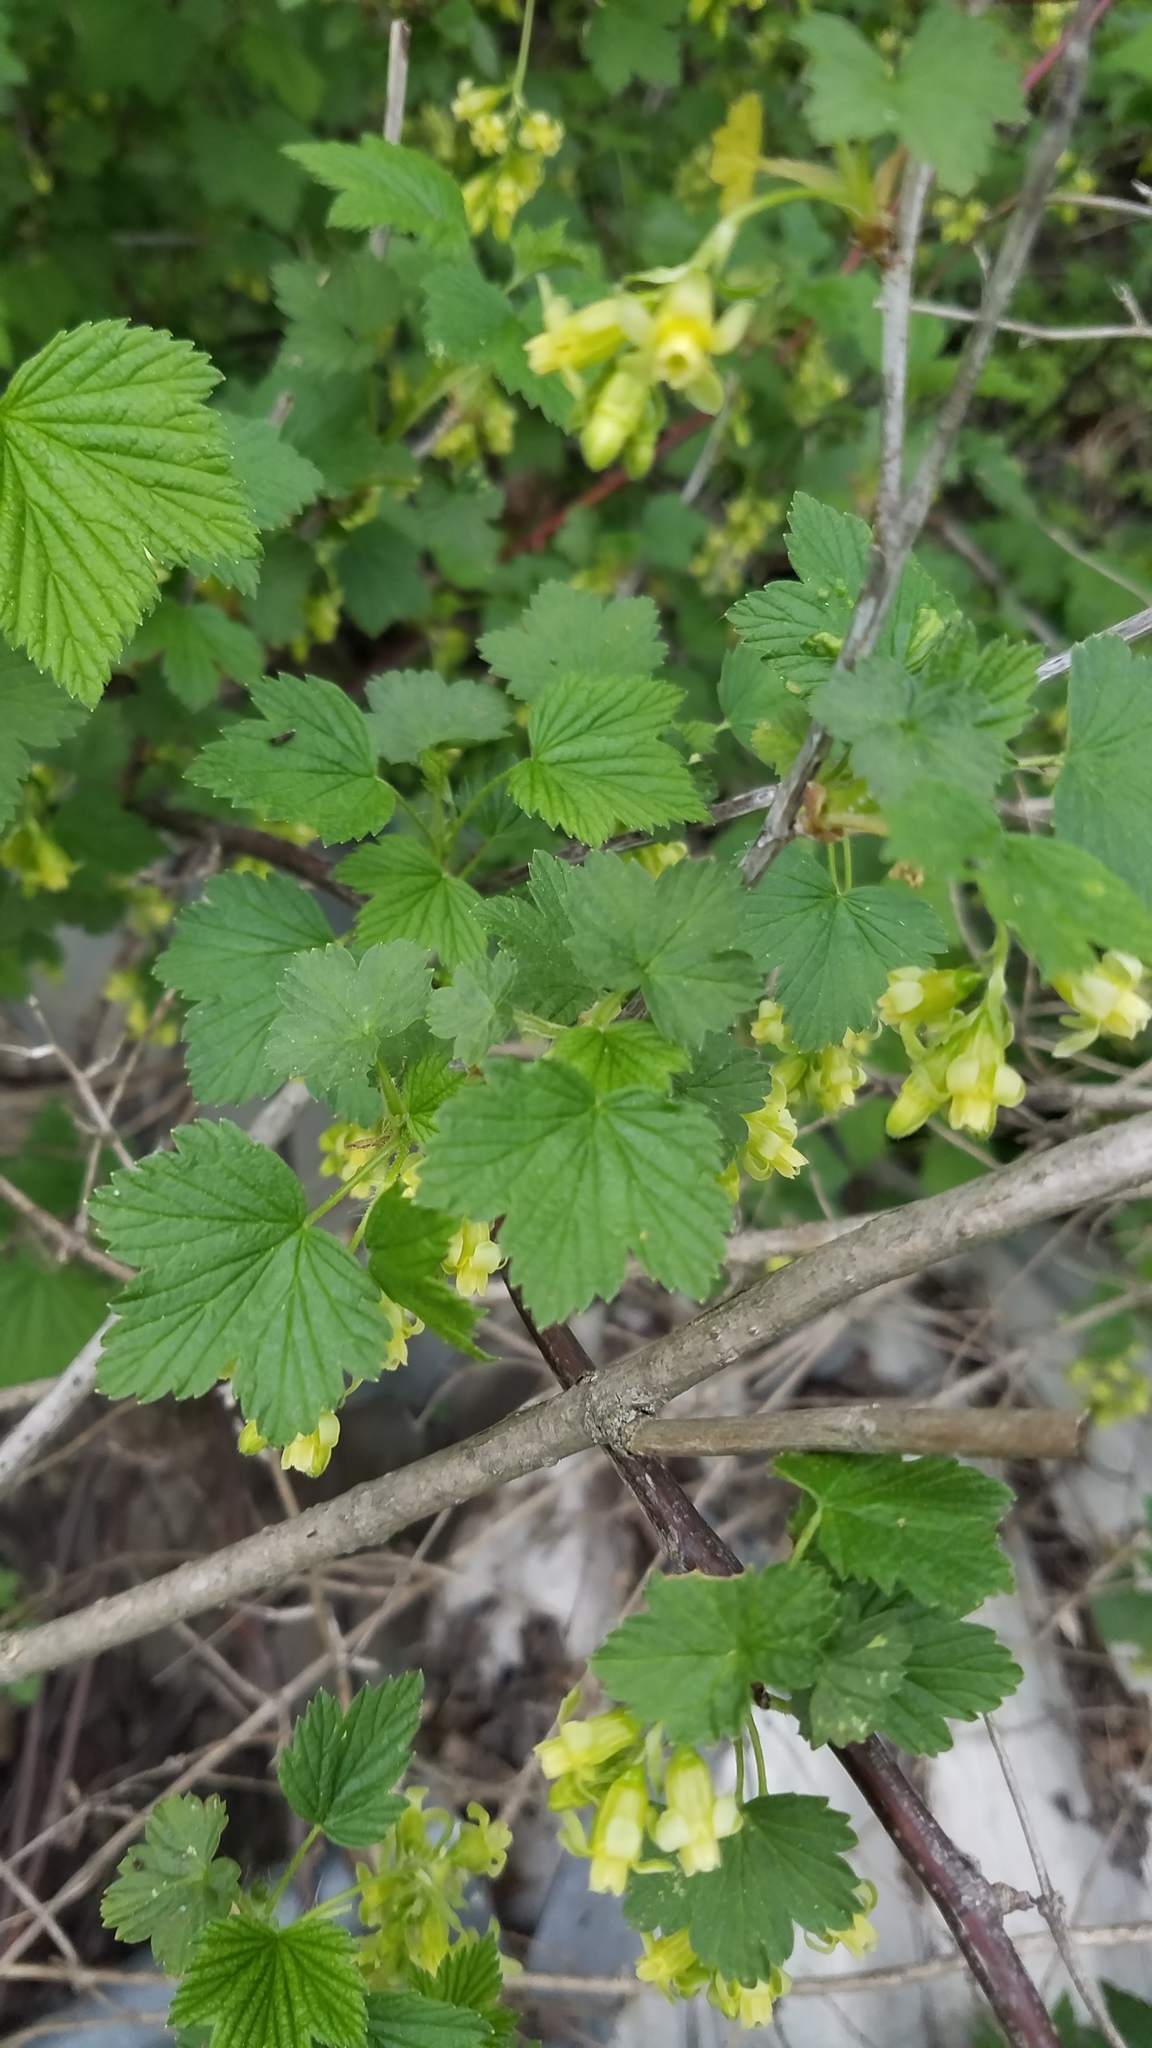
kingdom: Plantae
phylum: Tracheophyta
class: Magnoliopsida
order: Saxifragales
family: Grossulariaceae
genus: Ribes
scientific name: Ribes americanum
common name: American black currant
